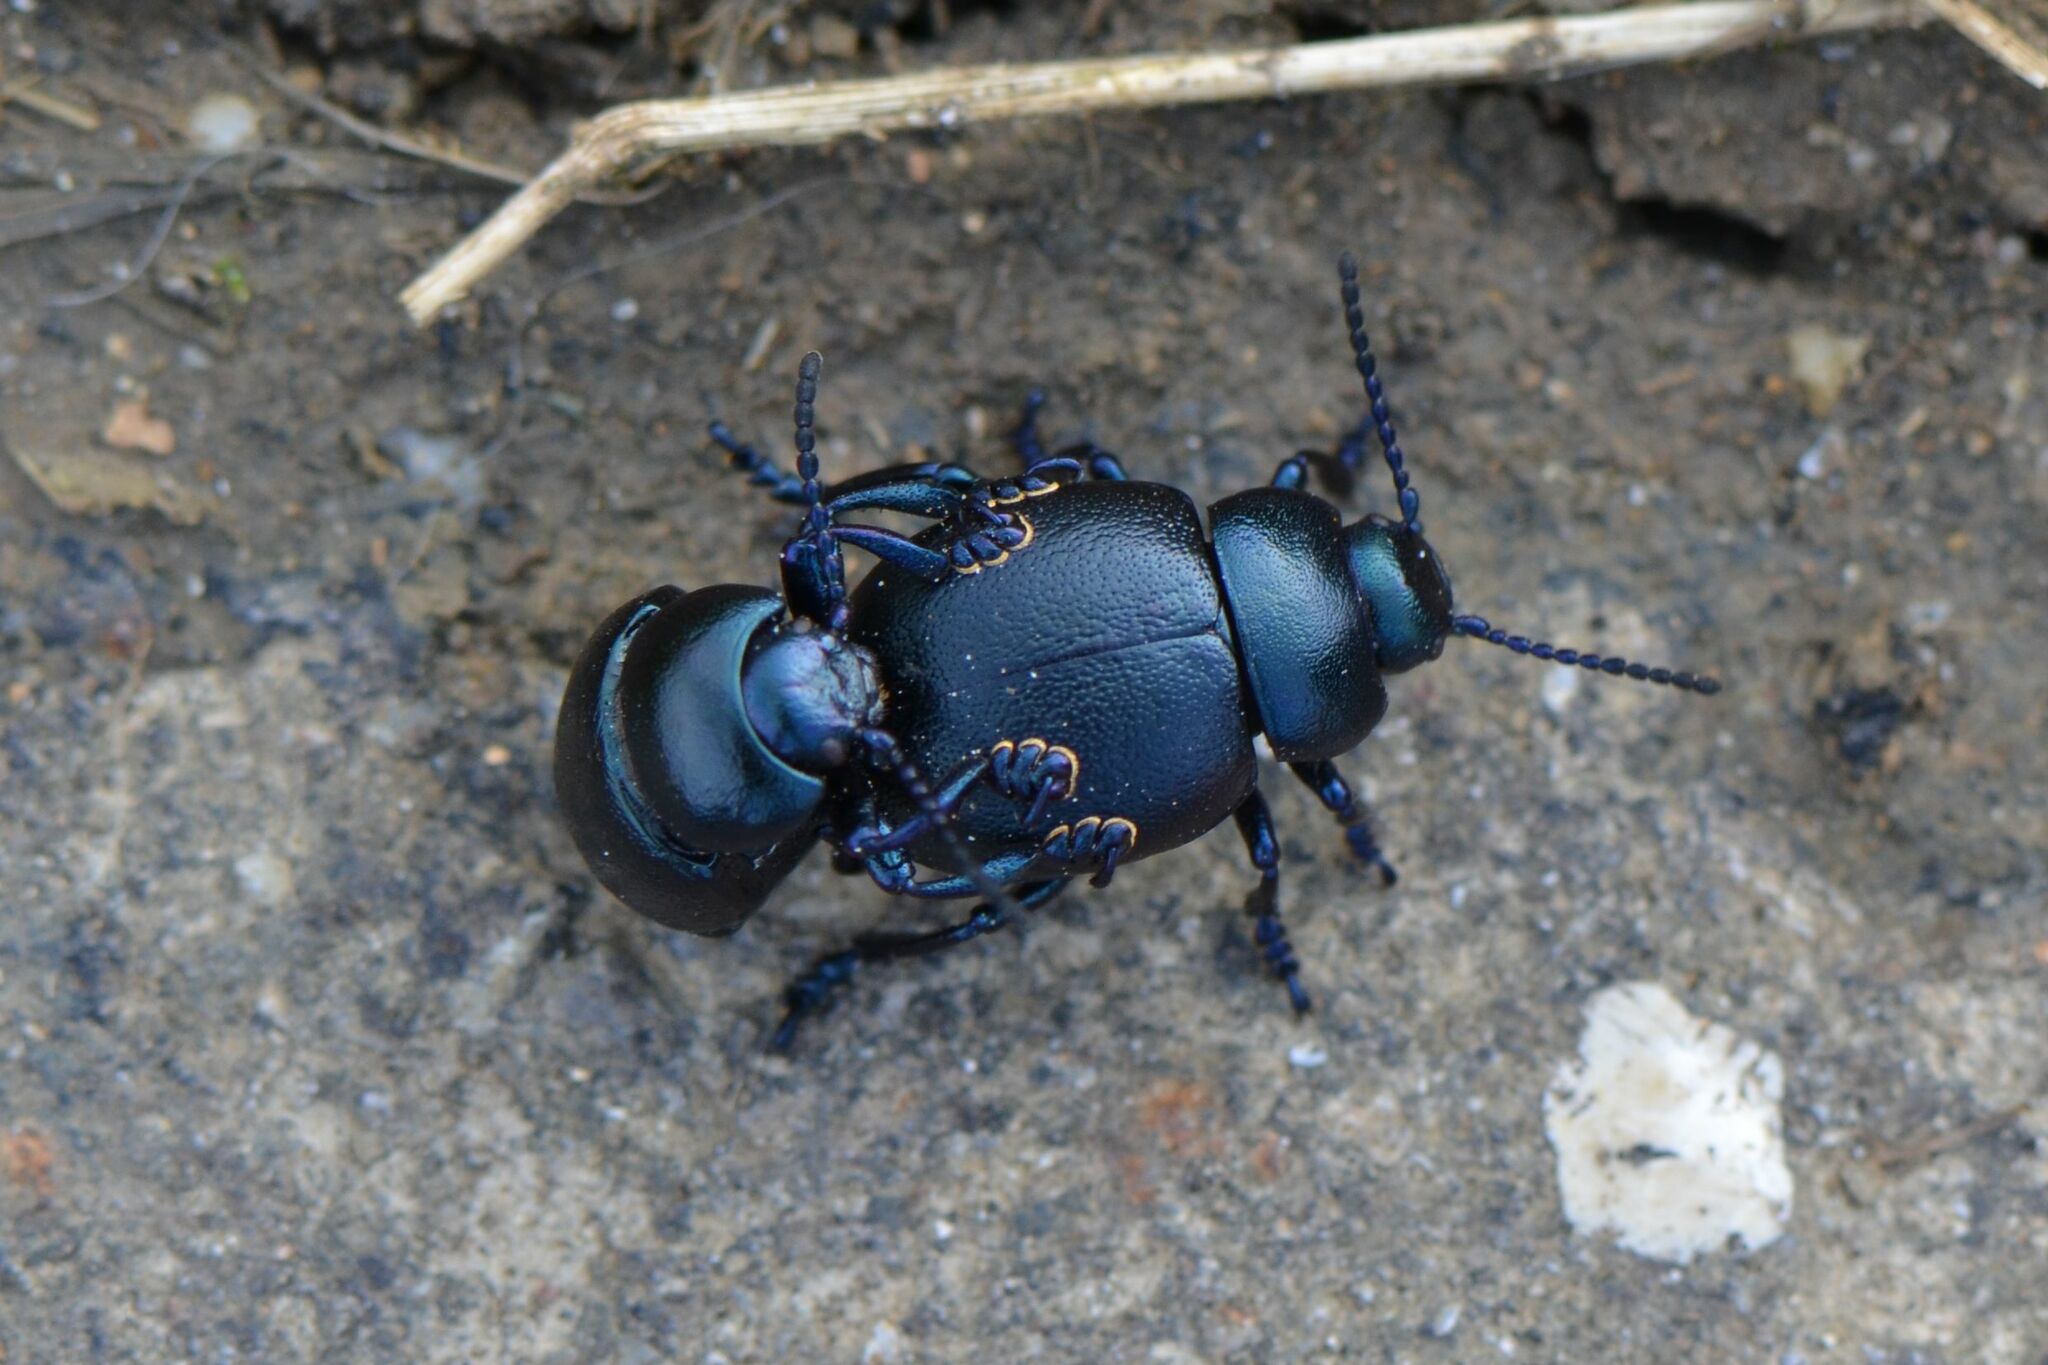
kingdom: Animalia
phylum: Arthropoda
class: Insecta
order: Coleoptera
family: Chrysomelidae
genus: Timarcha
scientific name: Timarcha goettingensis
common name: Small bloody-nosed beetle
